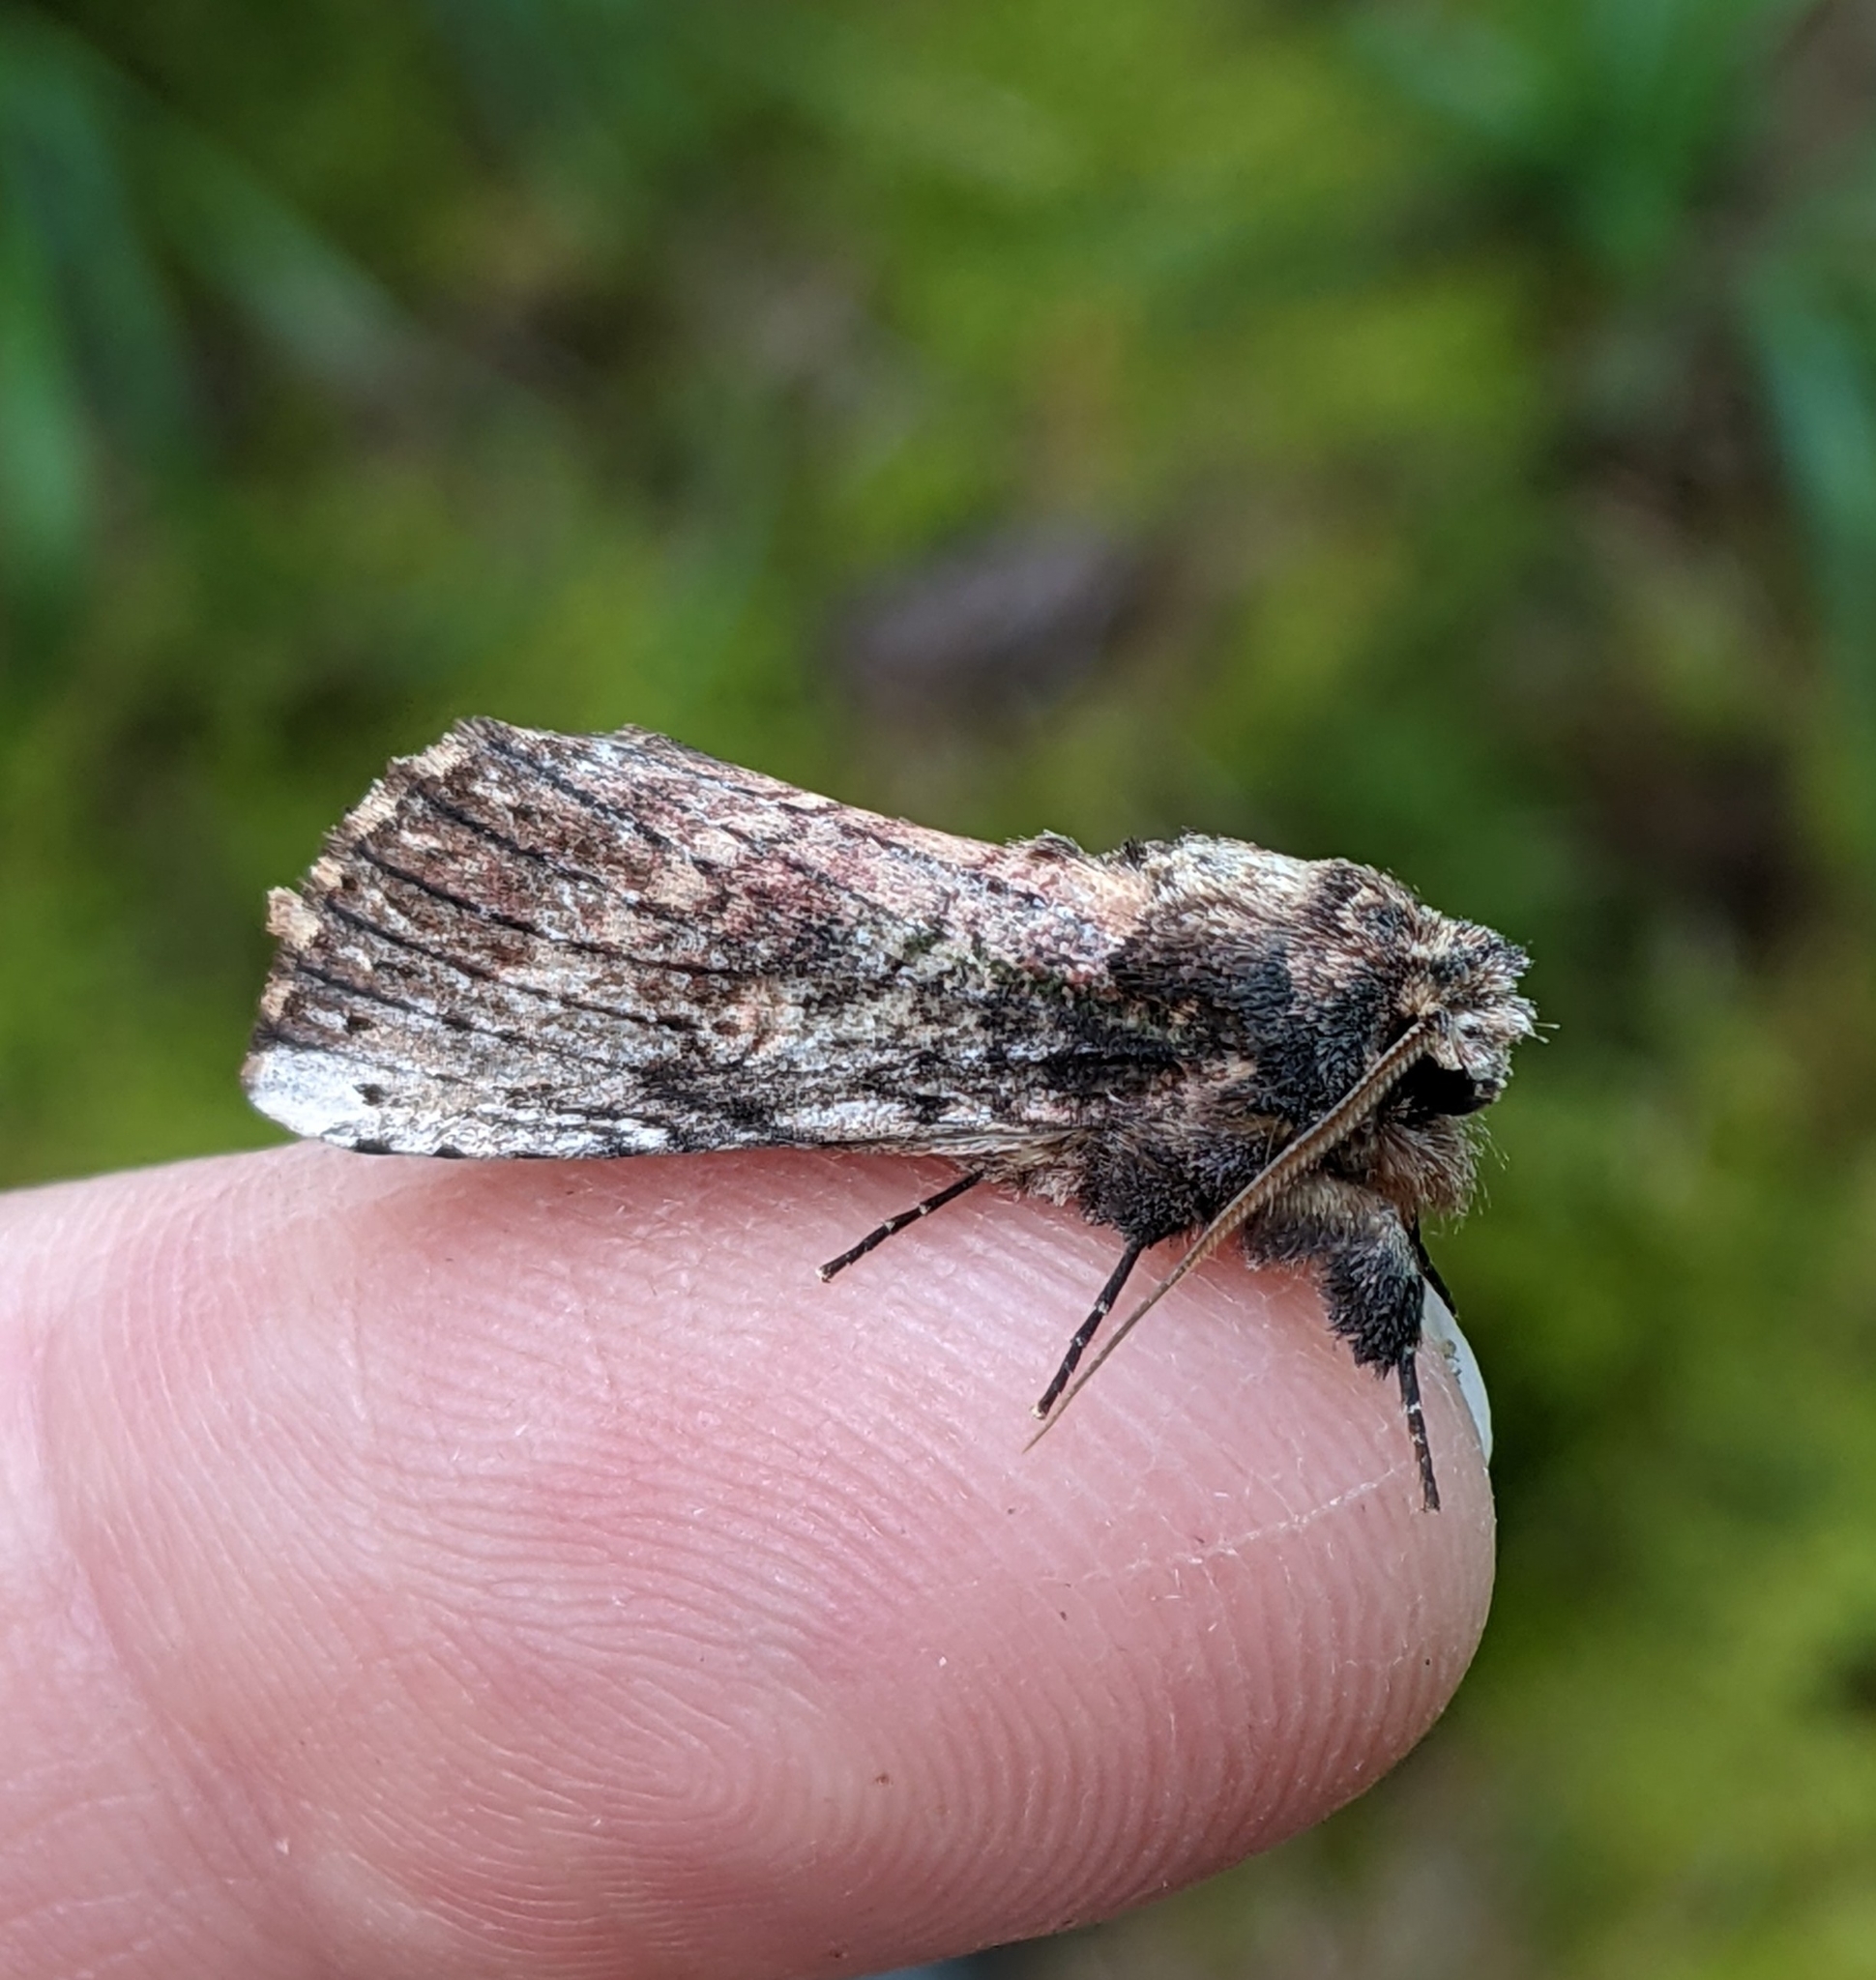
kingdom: Animalia
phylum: Arthropoda
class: Insecta
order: Lepidoptera
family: Notodontidae
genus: Schizura
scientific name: Schizura ipomaeae
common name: Morning-glory prominent
